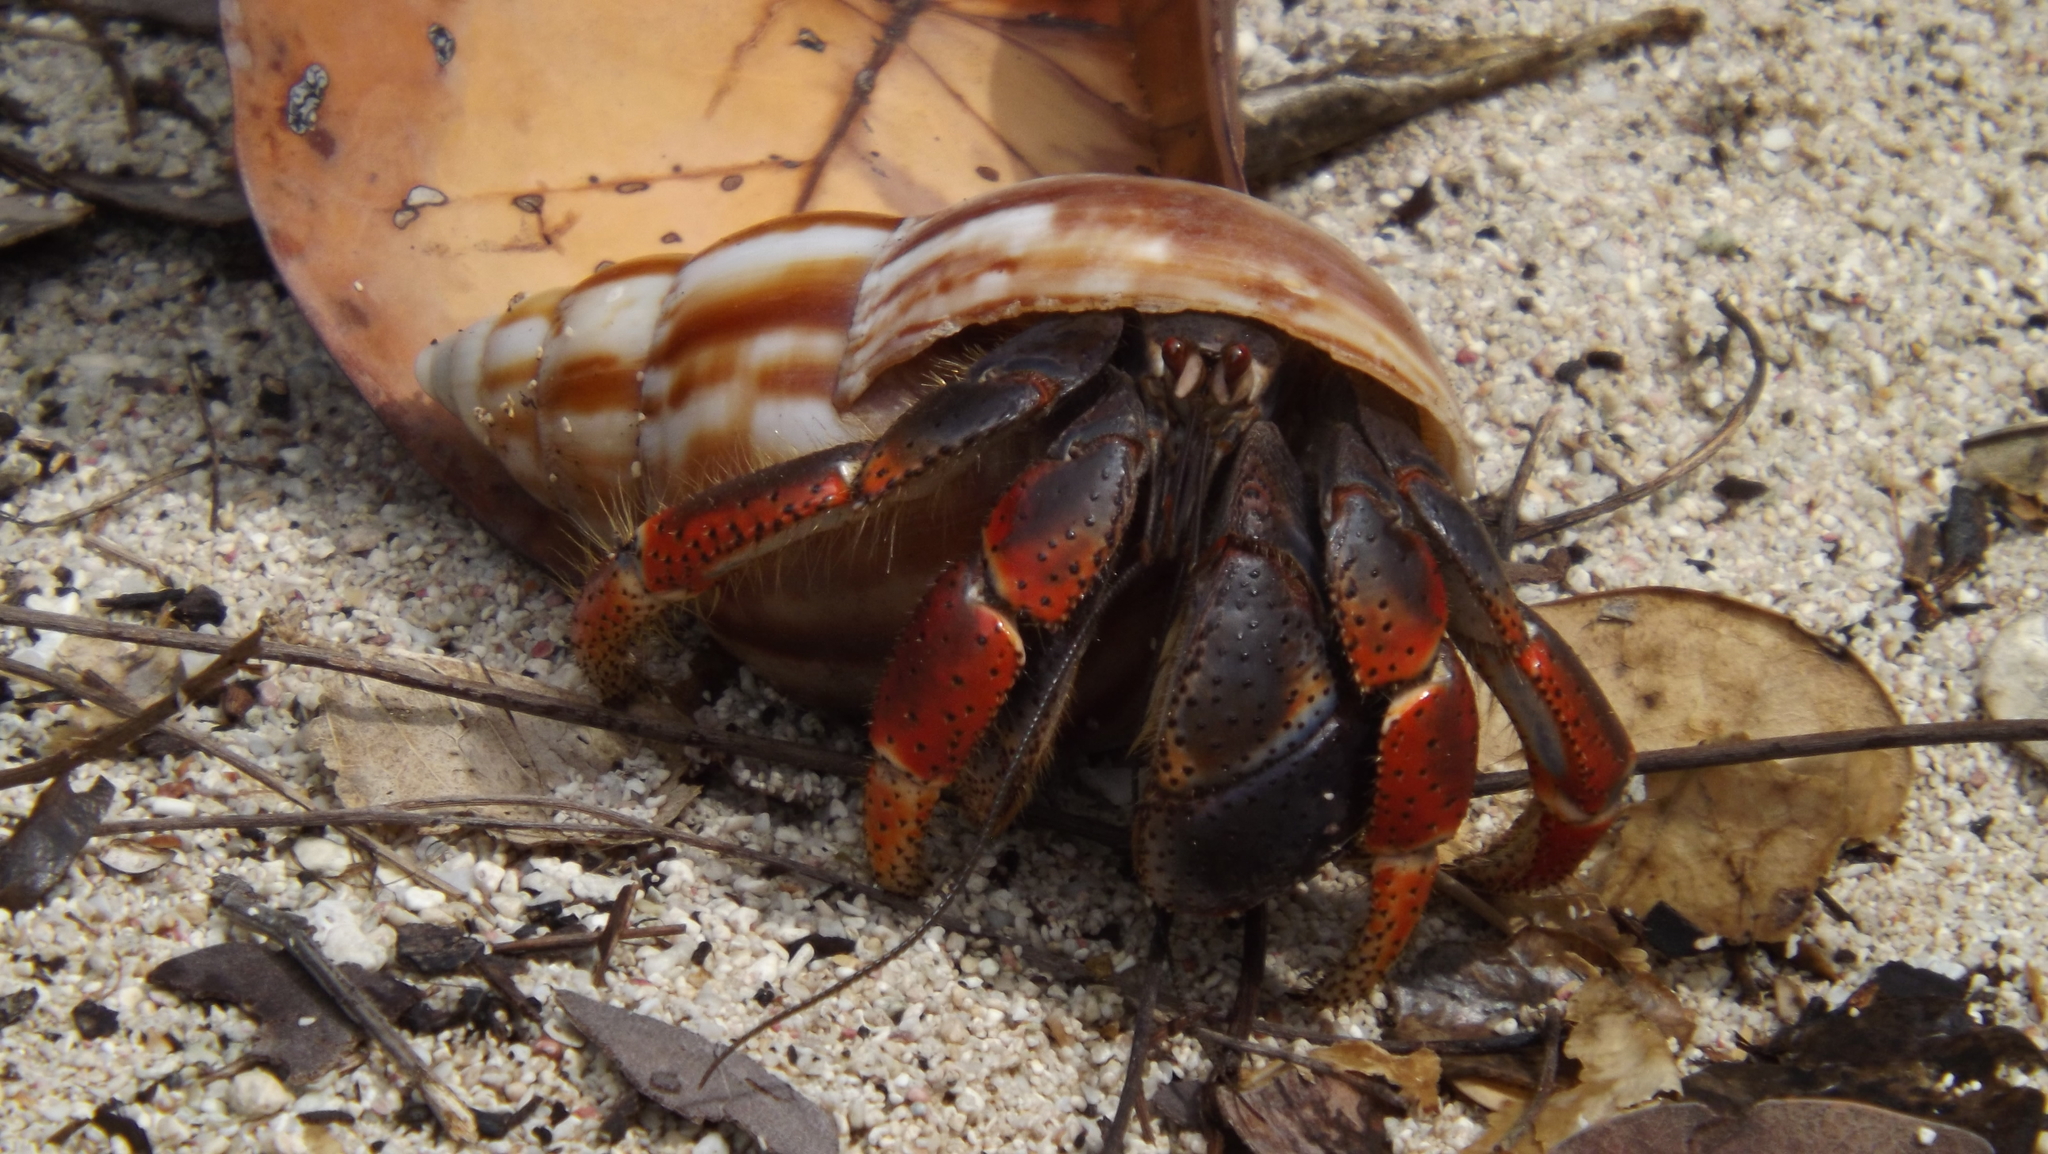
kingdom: Animalia
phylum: Arthropoda
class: Malacostraca
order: Decapoda
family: Coenobitidae
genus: Coenobita
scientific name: Coenobita clypeatus
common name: Caribbean hermit crab
